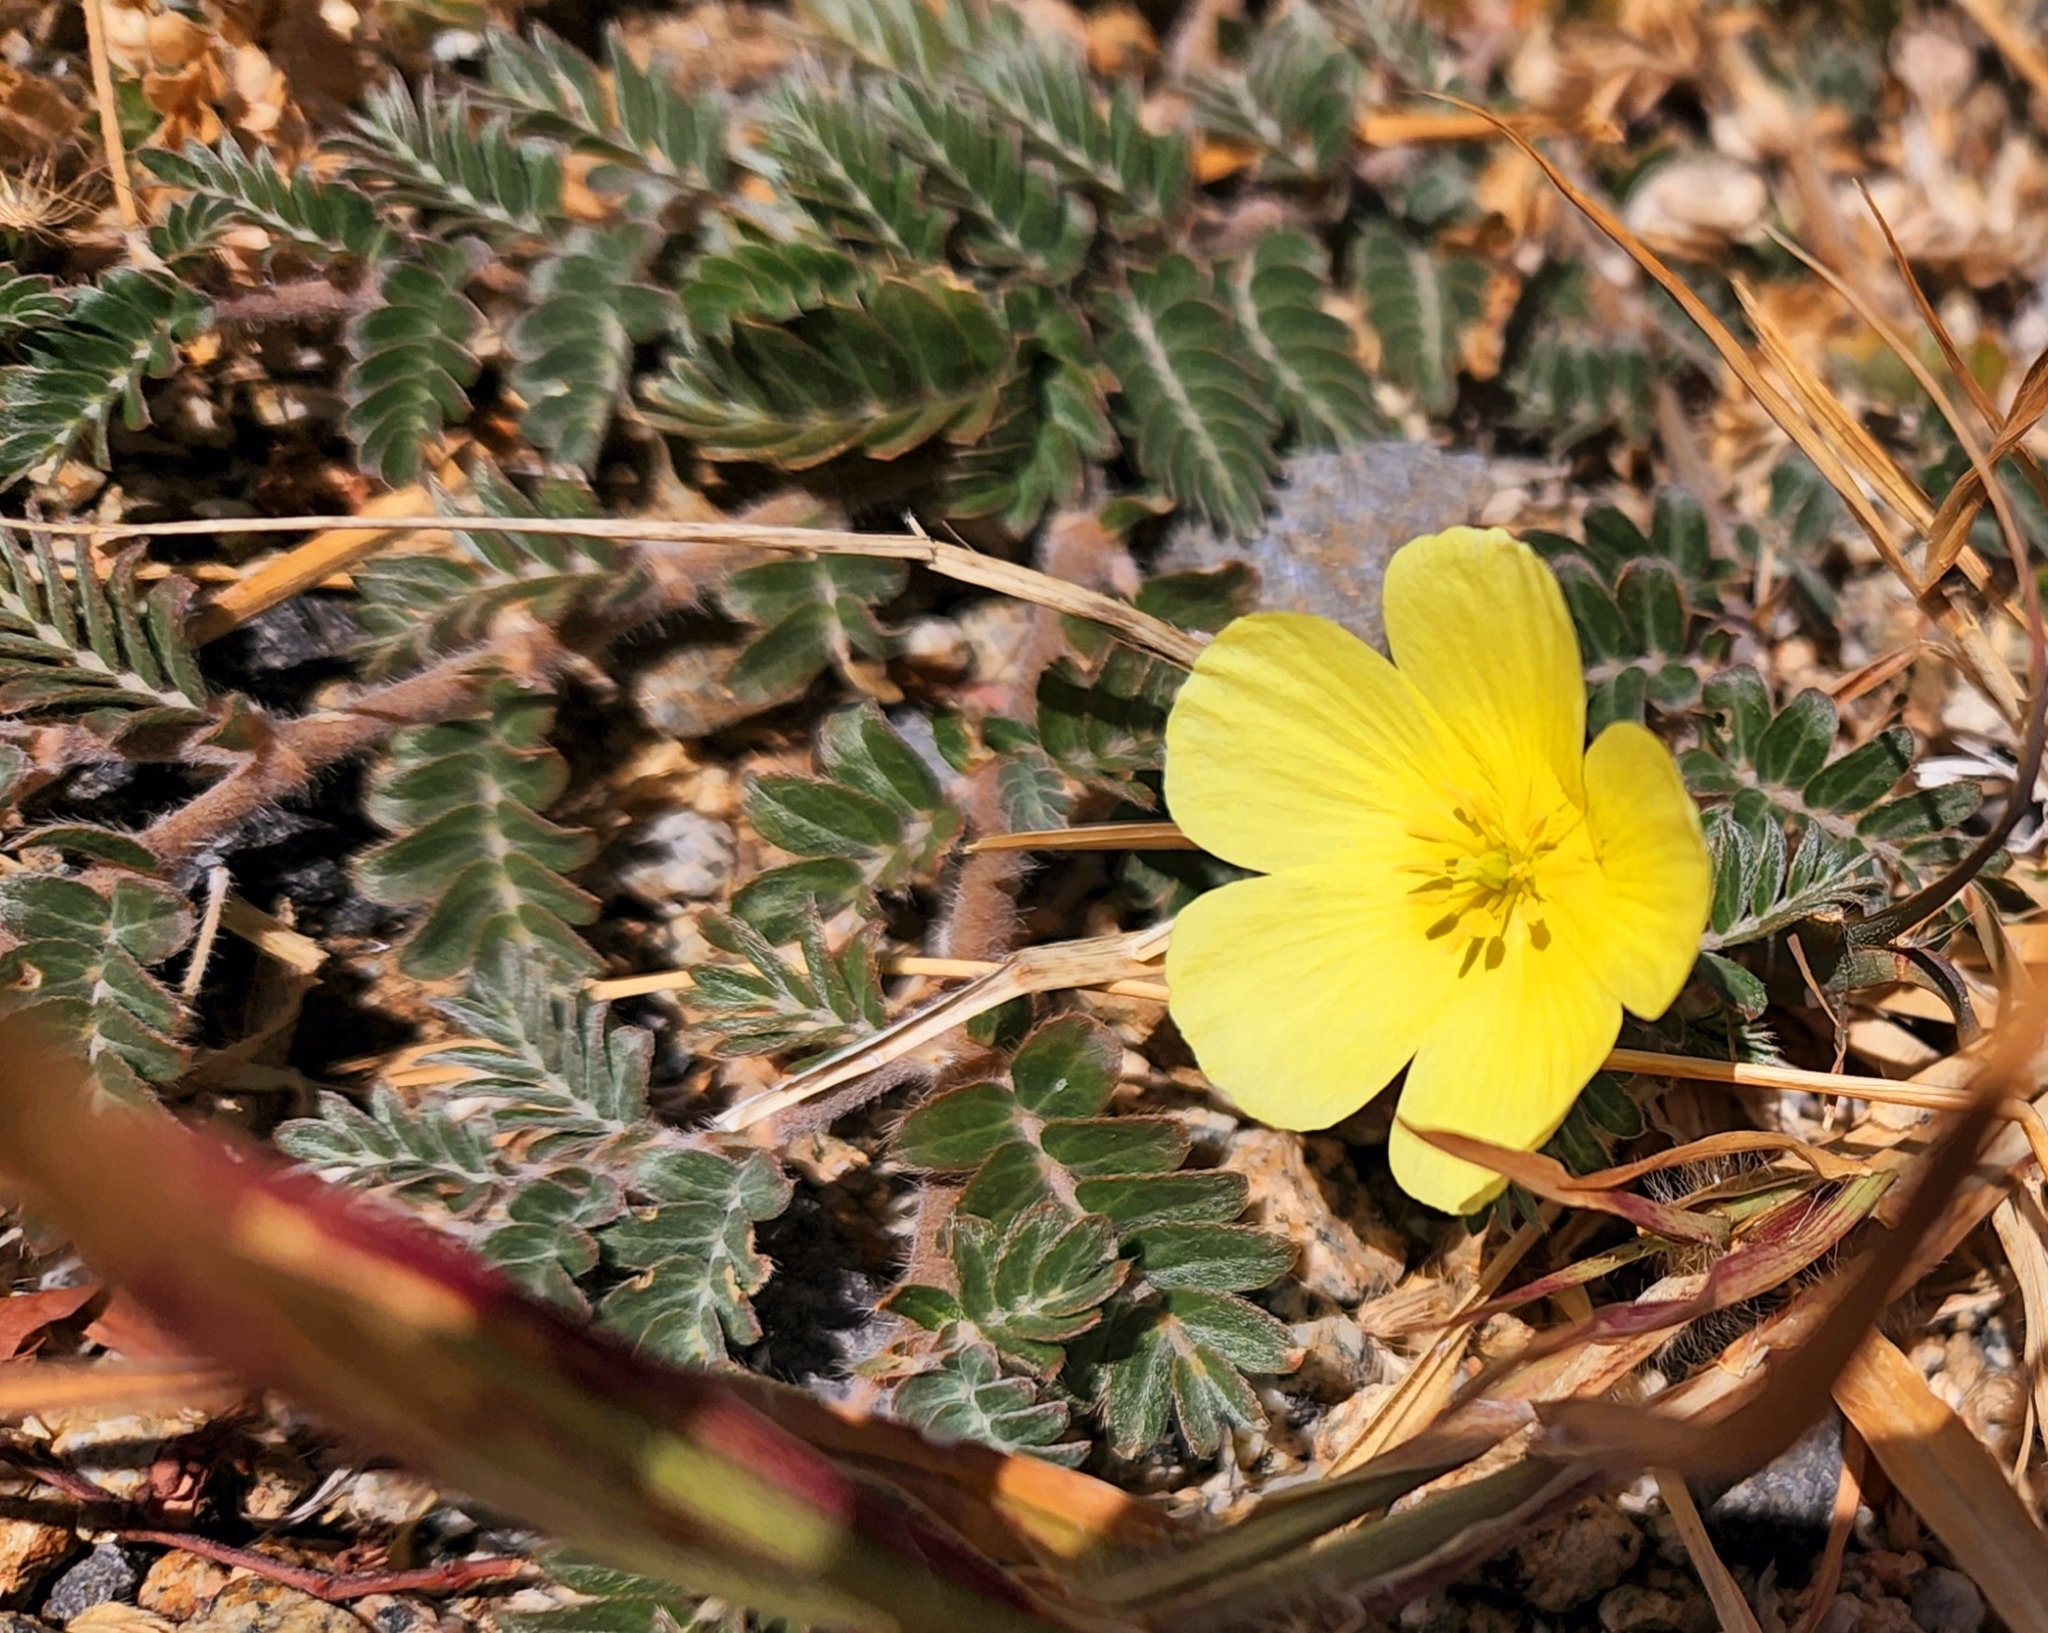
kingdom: Plantae
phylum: Tracheophyta
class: Magnoliopsida
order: Zygophyllales
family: Zygophyllaceae
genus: Tribulus
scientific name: Tribulus cistoides
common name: Jamaican feverplant
